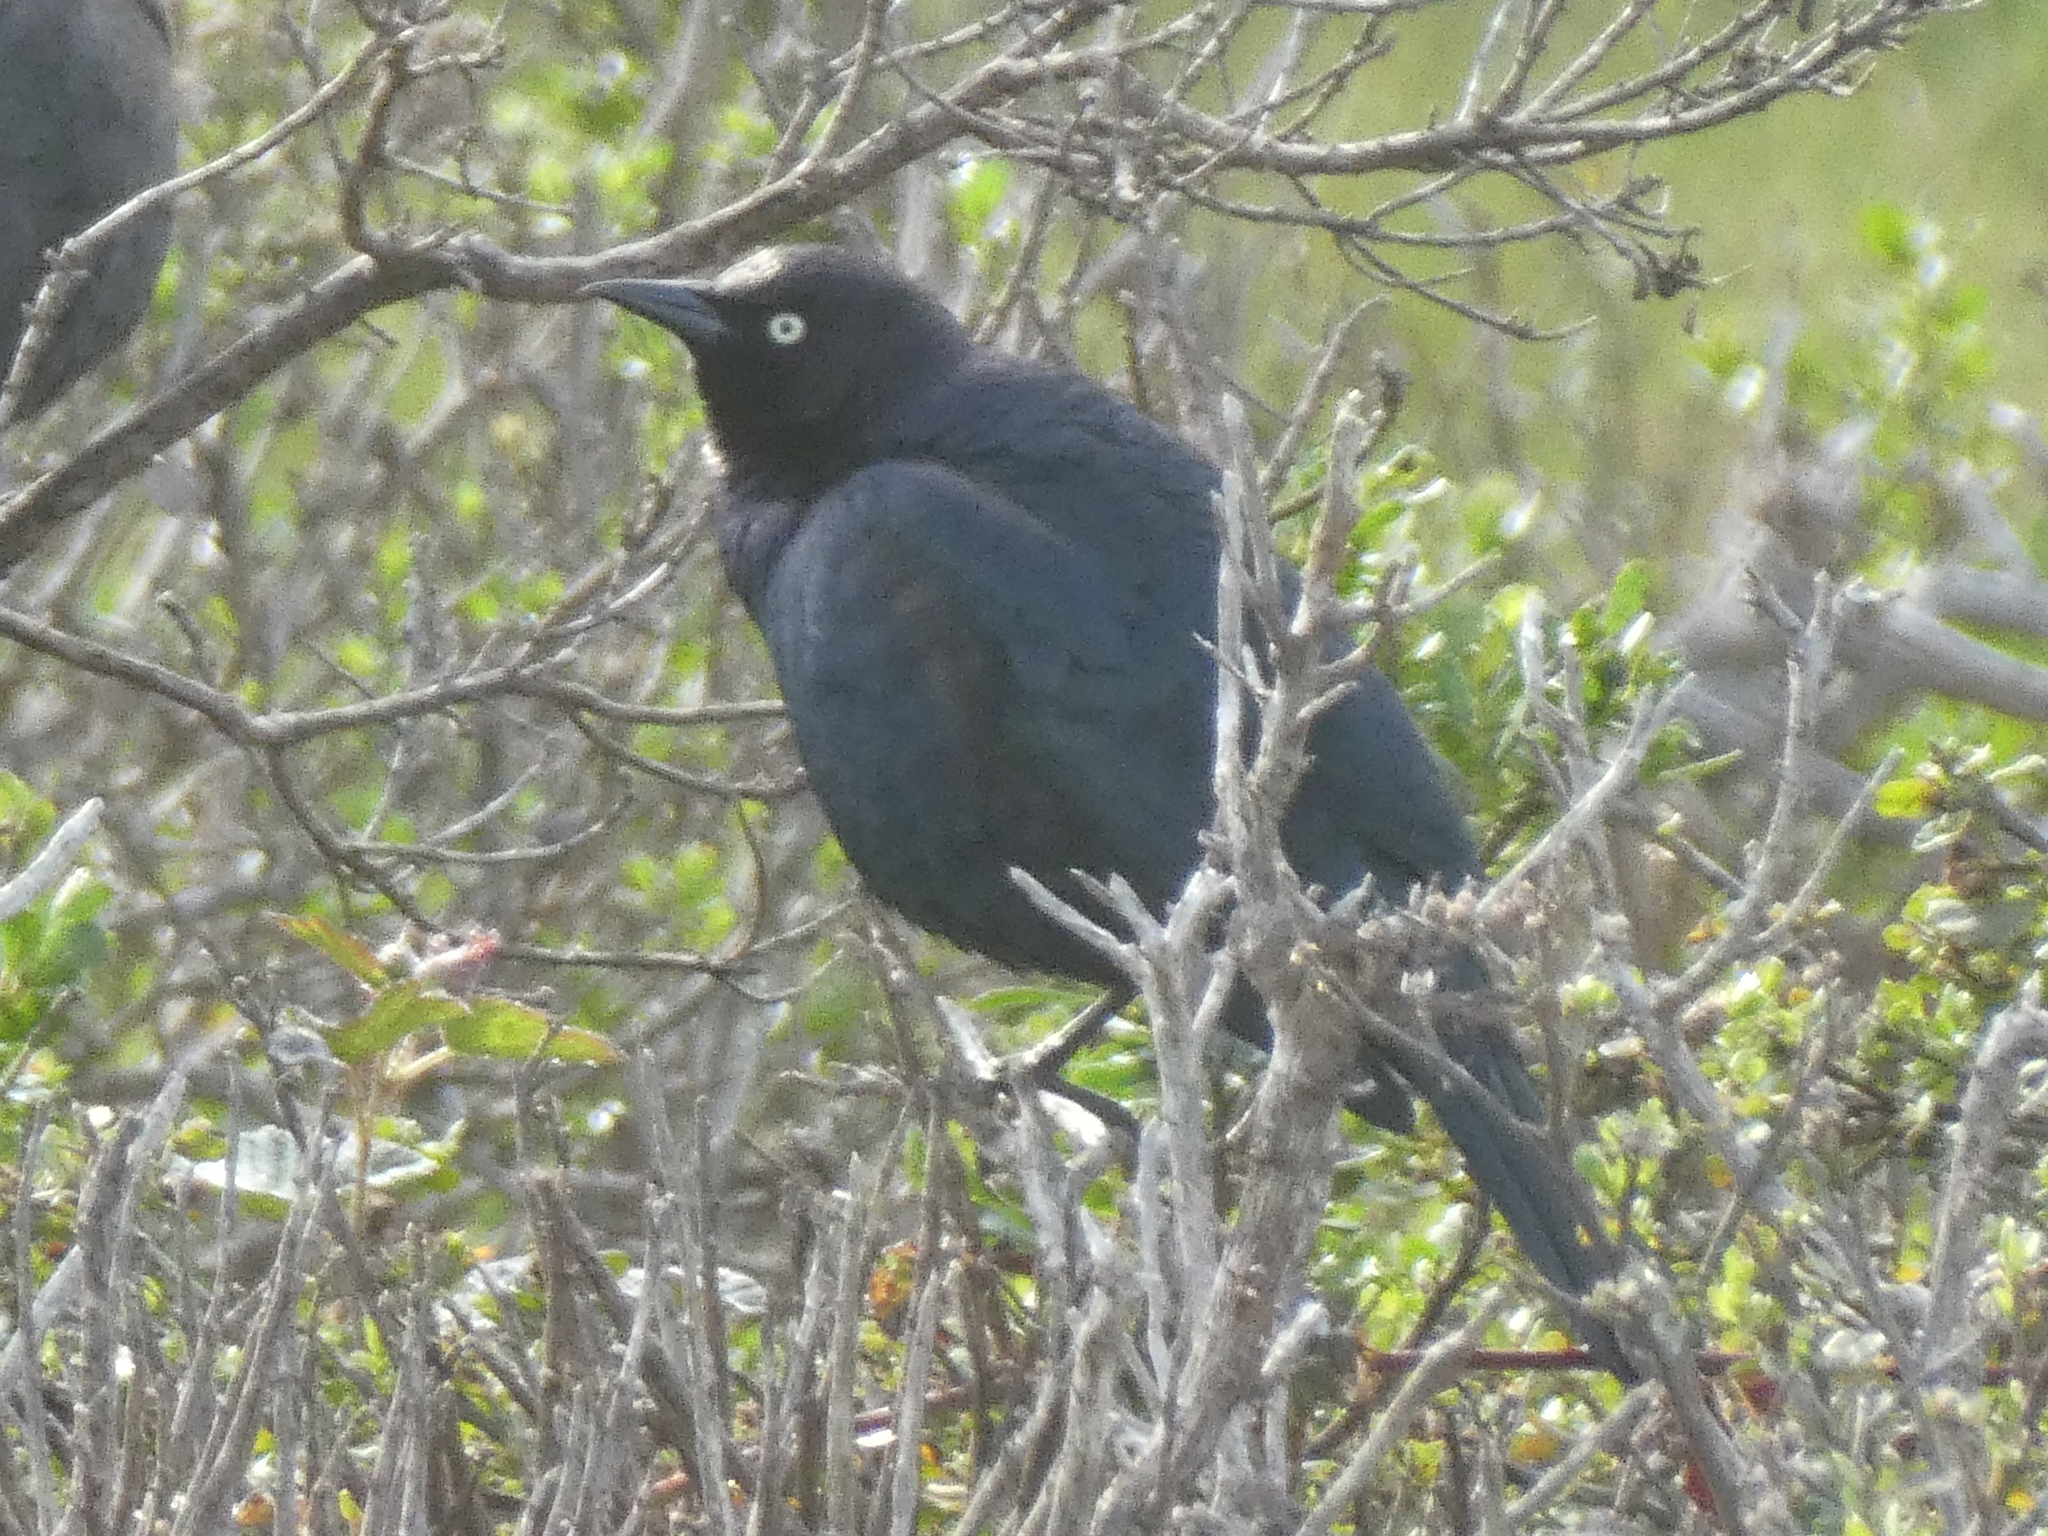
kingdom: Animalia
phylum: Chordata
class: Aves
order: Passeriformes
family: Icteridae
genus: Euphagus
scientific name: Euphagus cyanocephalus
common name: Brewer's blackbird
